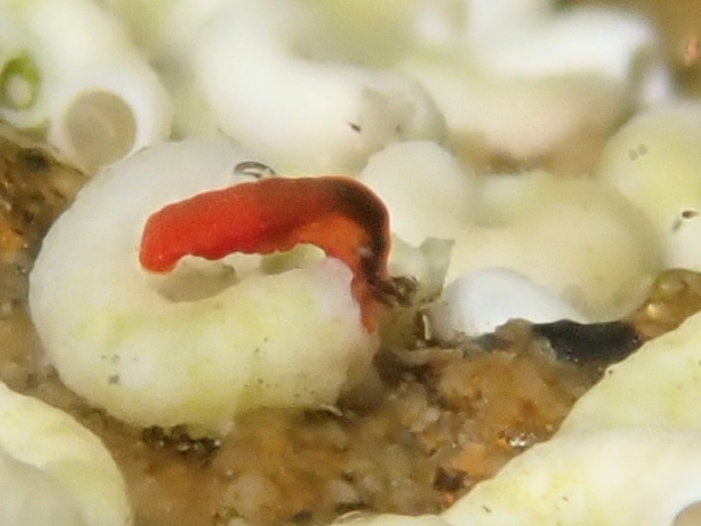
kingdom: Animalia
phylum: Mollusca
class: Gastropoda
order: Nudibranchia
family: Okadaiidae
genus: Vayssierea
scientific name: Vayssierea cinnabarea
